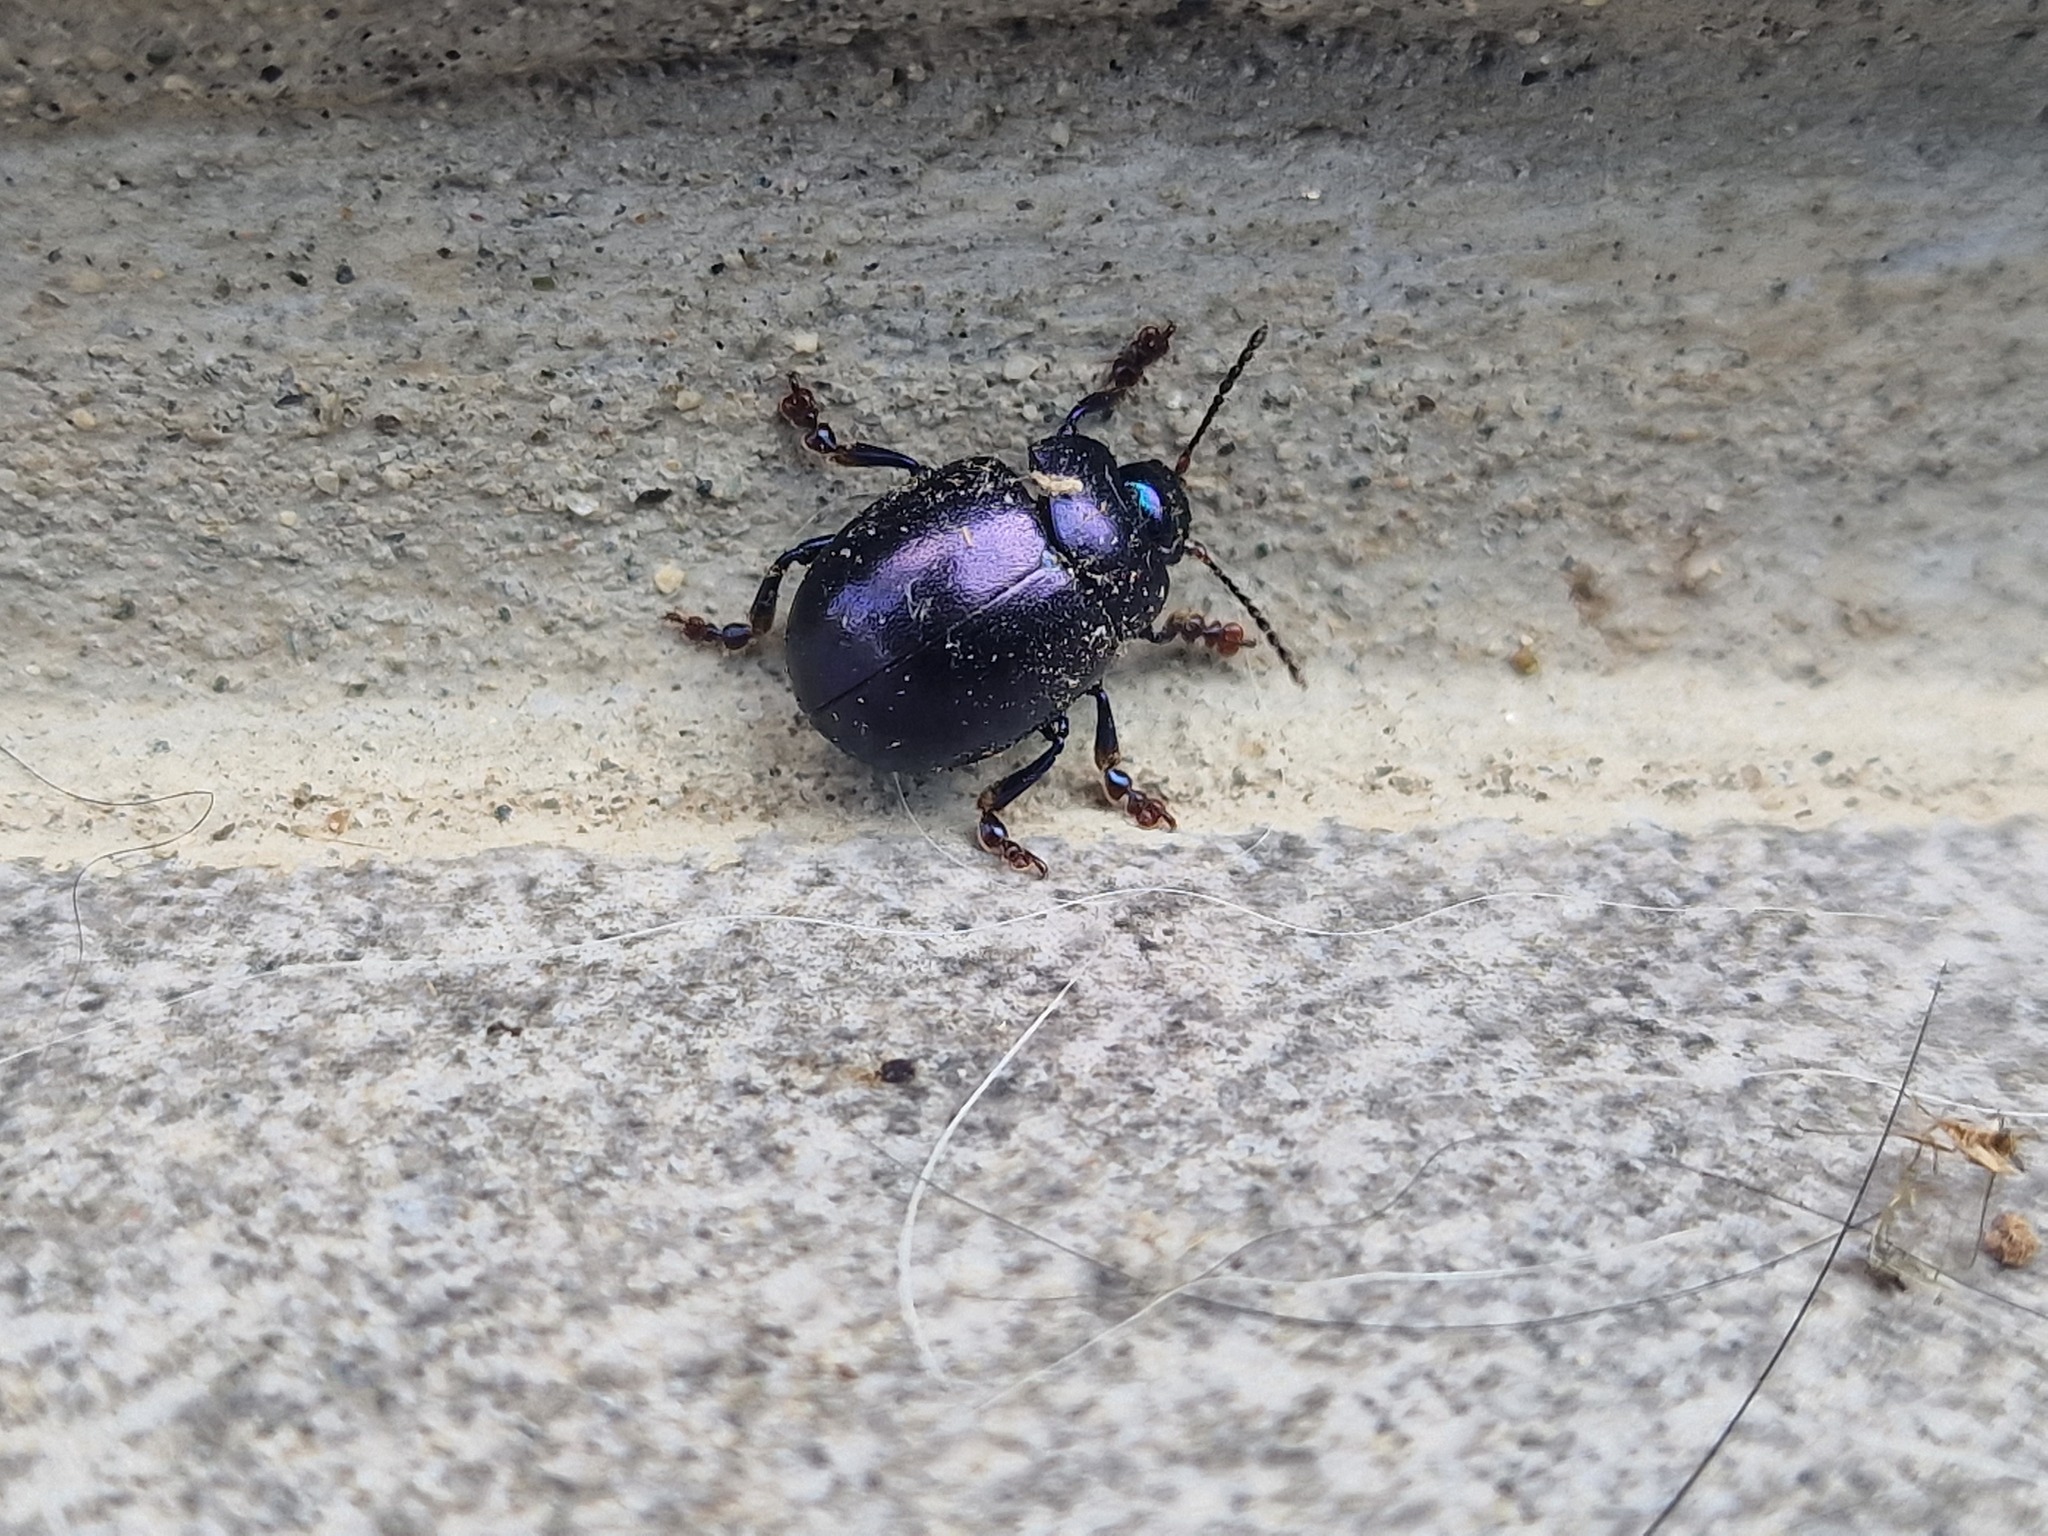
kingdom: Animalia
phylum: Arthropoda
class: Insecta
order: Coleoptera
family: Chrysomelidae
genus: Chrysolina
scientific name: Chrysolina sturmi
